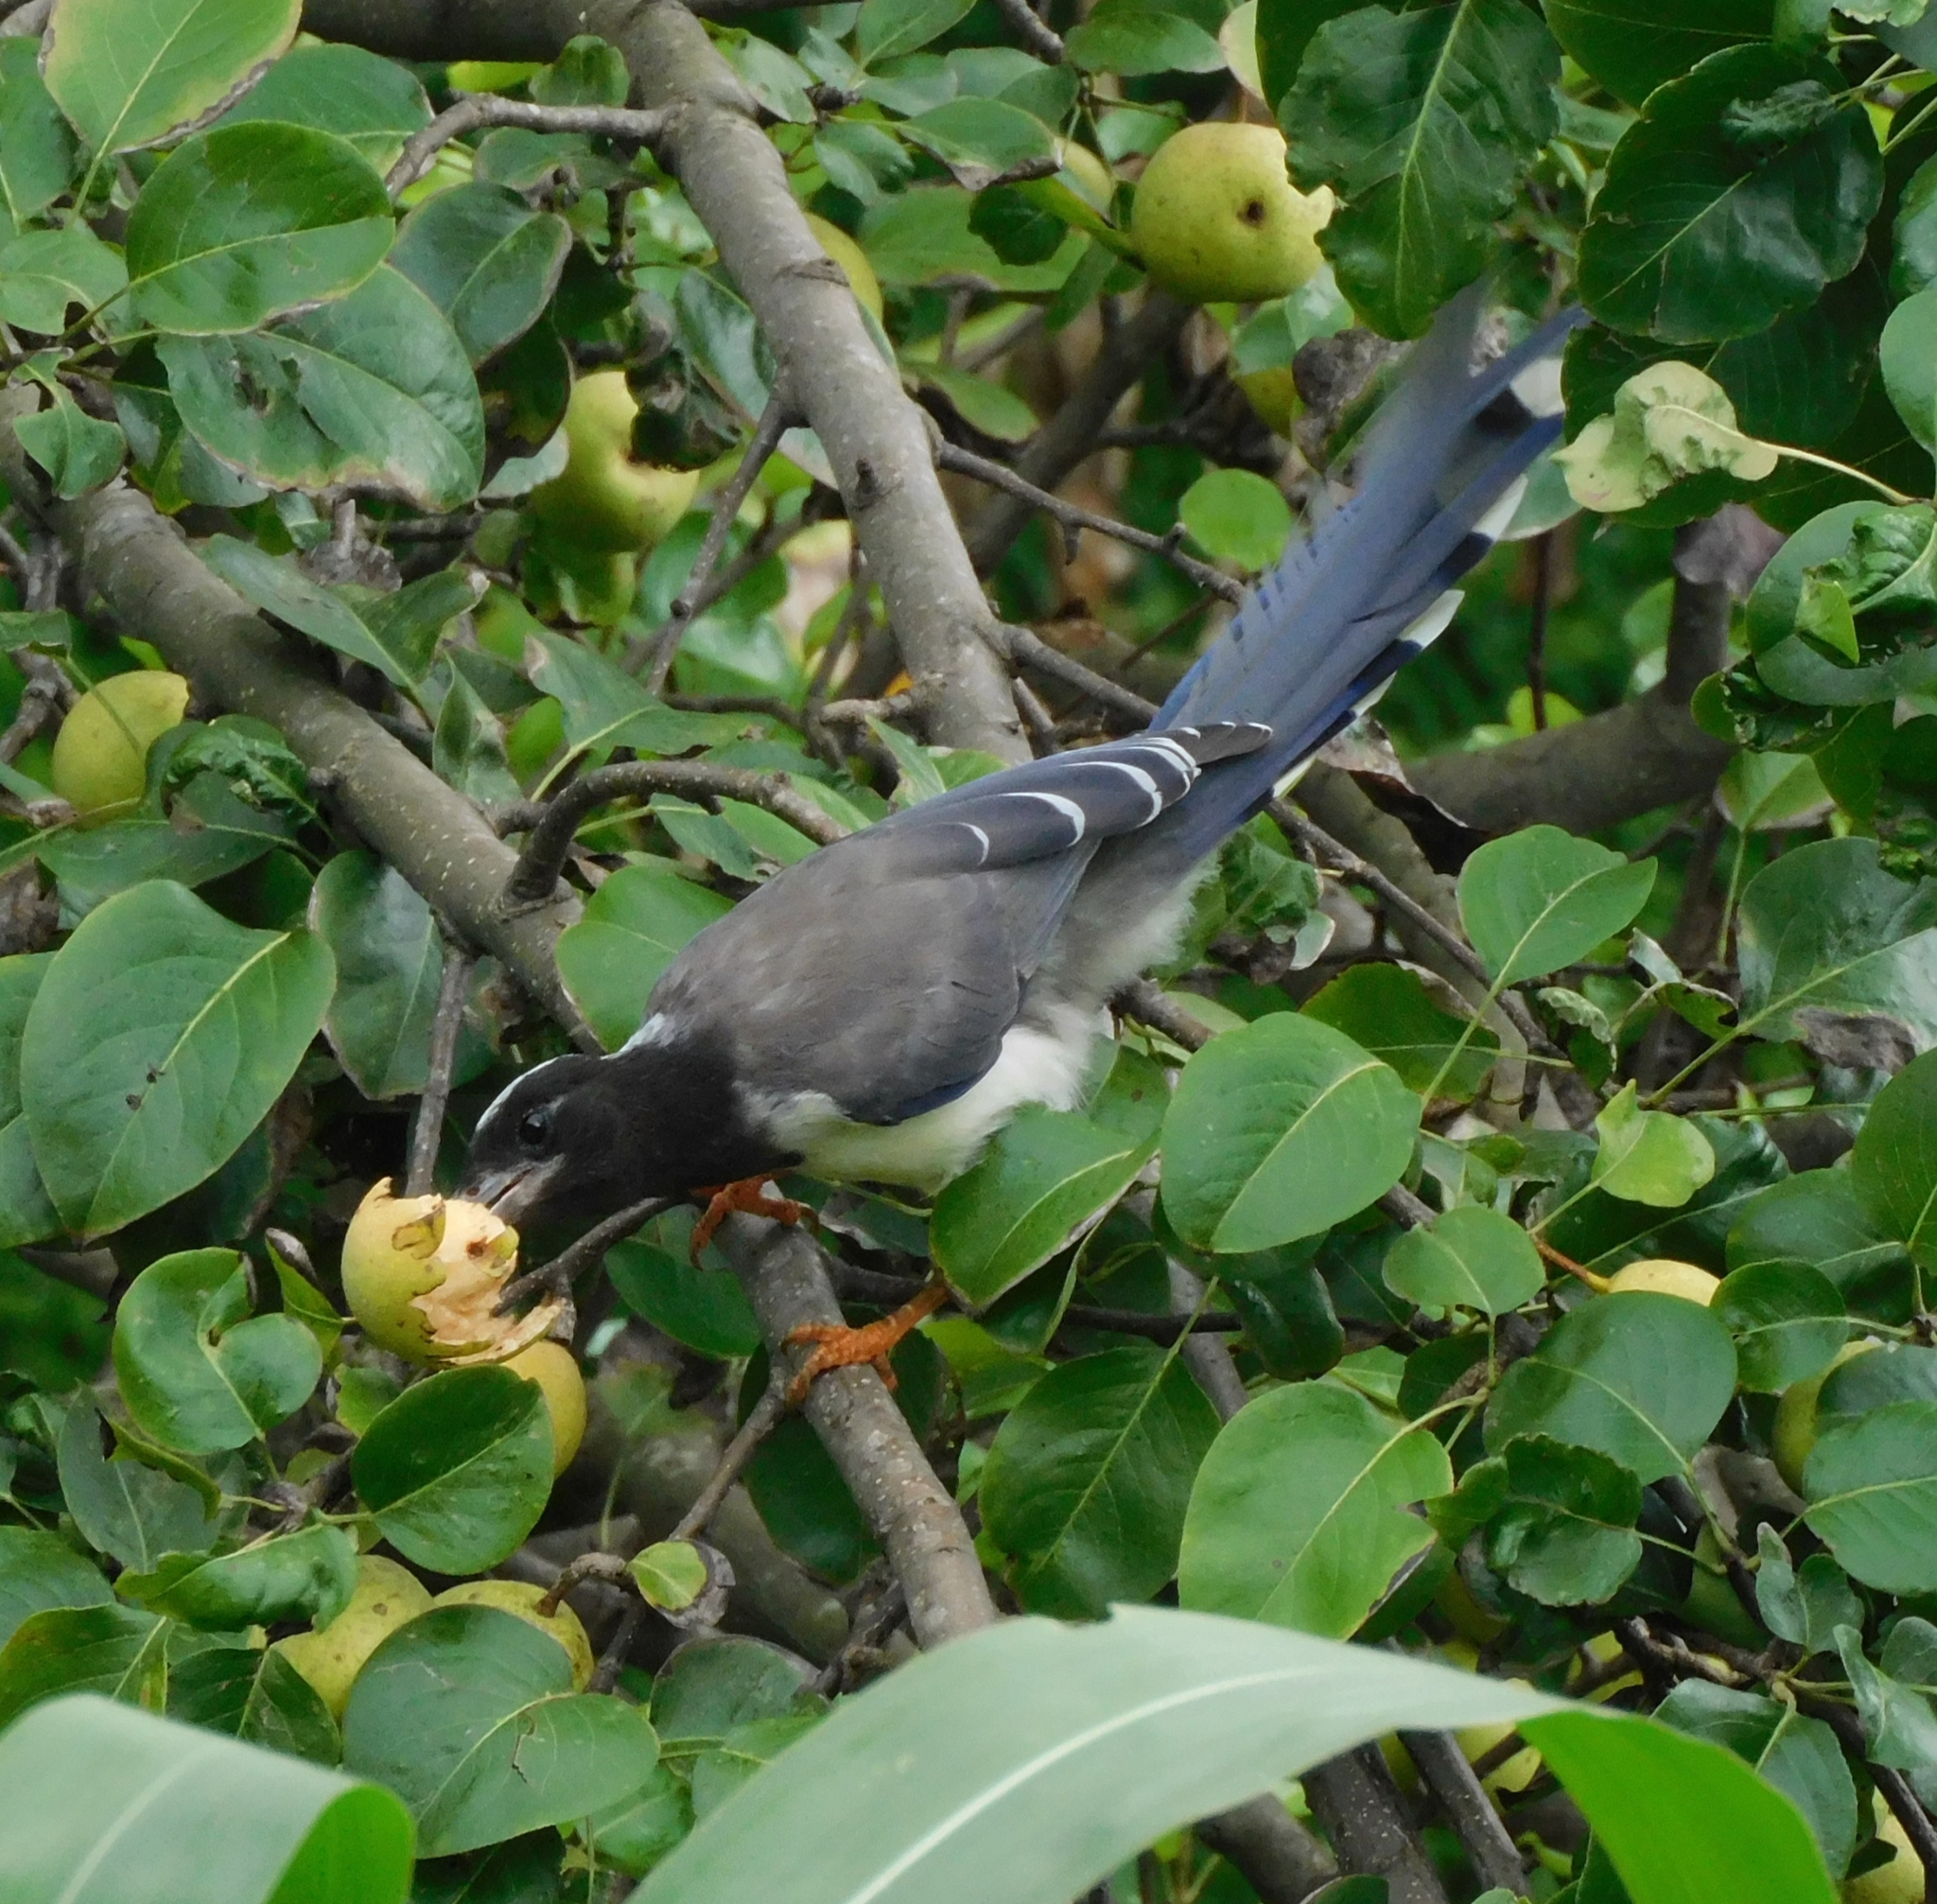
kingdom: Animalia
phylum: Chordata
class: Aves
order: Passeriformes
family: Corvidae
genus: Urocissa
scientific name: Urocissa erythroryncha
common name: Red-billed blue magpie
